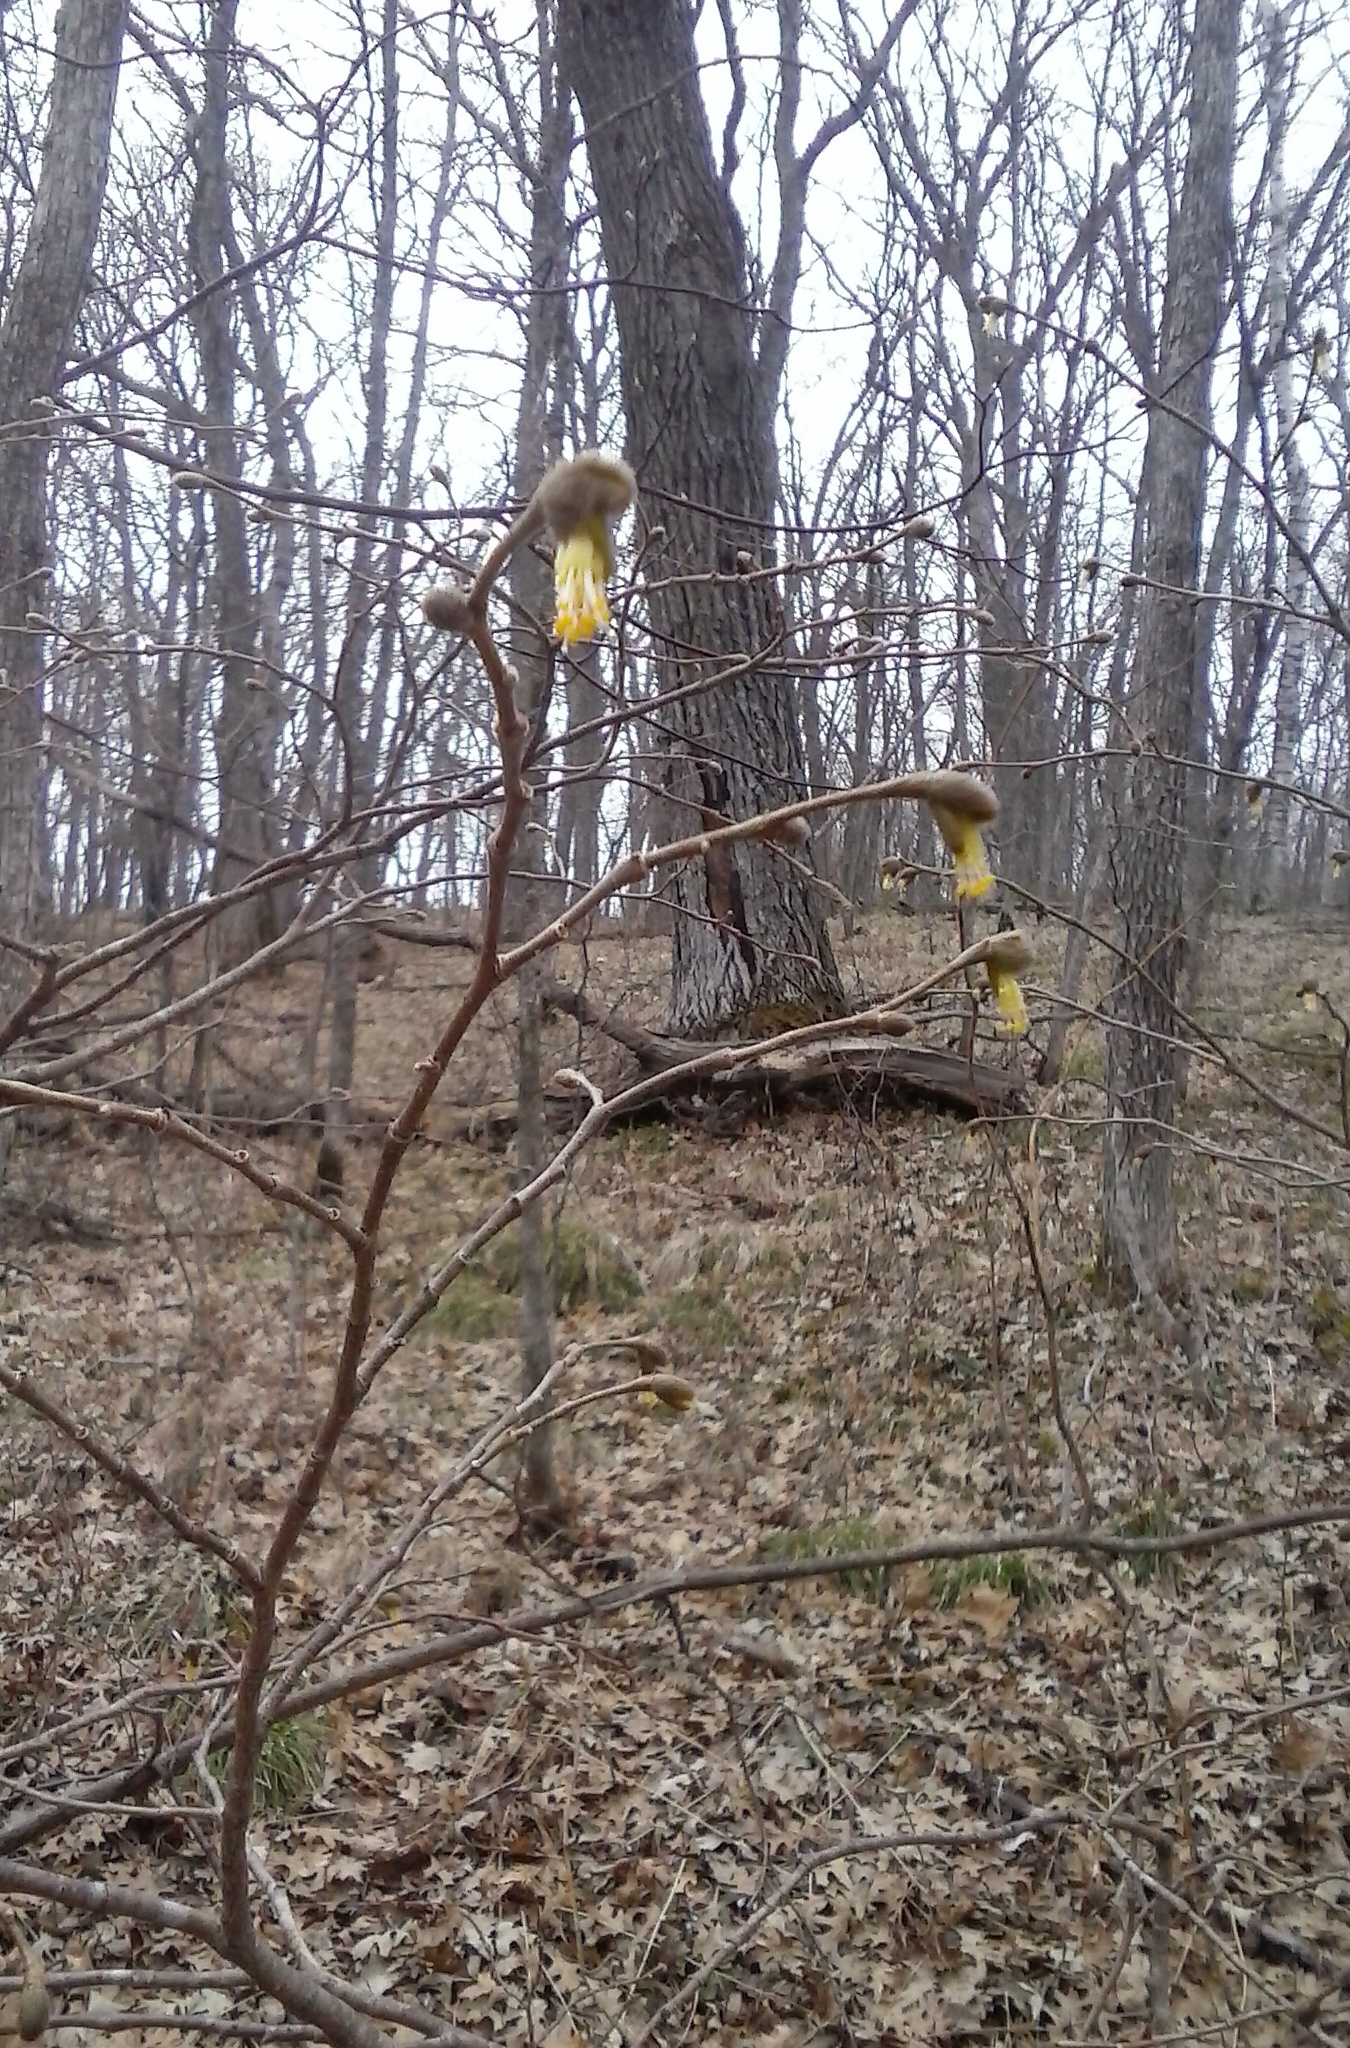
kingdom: Plantae
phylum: Tracheophyta
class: Magnoliopsida
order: Malvales
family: Thymelaeaceae
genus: Dirca
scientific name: Dirca palustris
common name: Leatherwood
